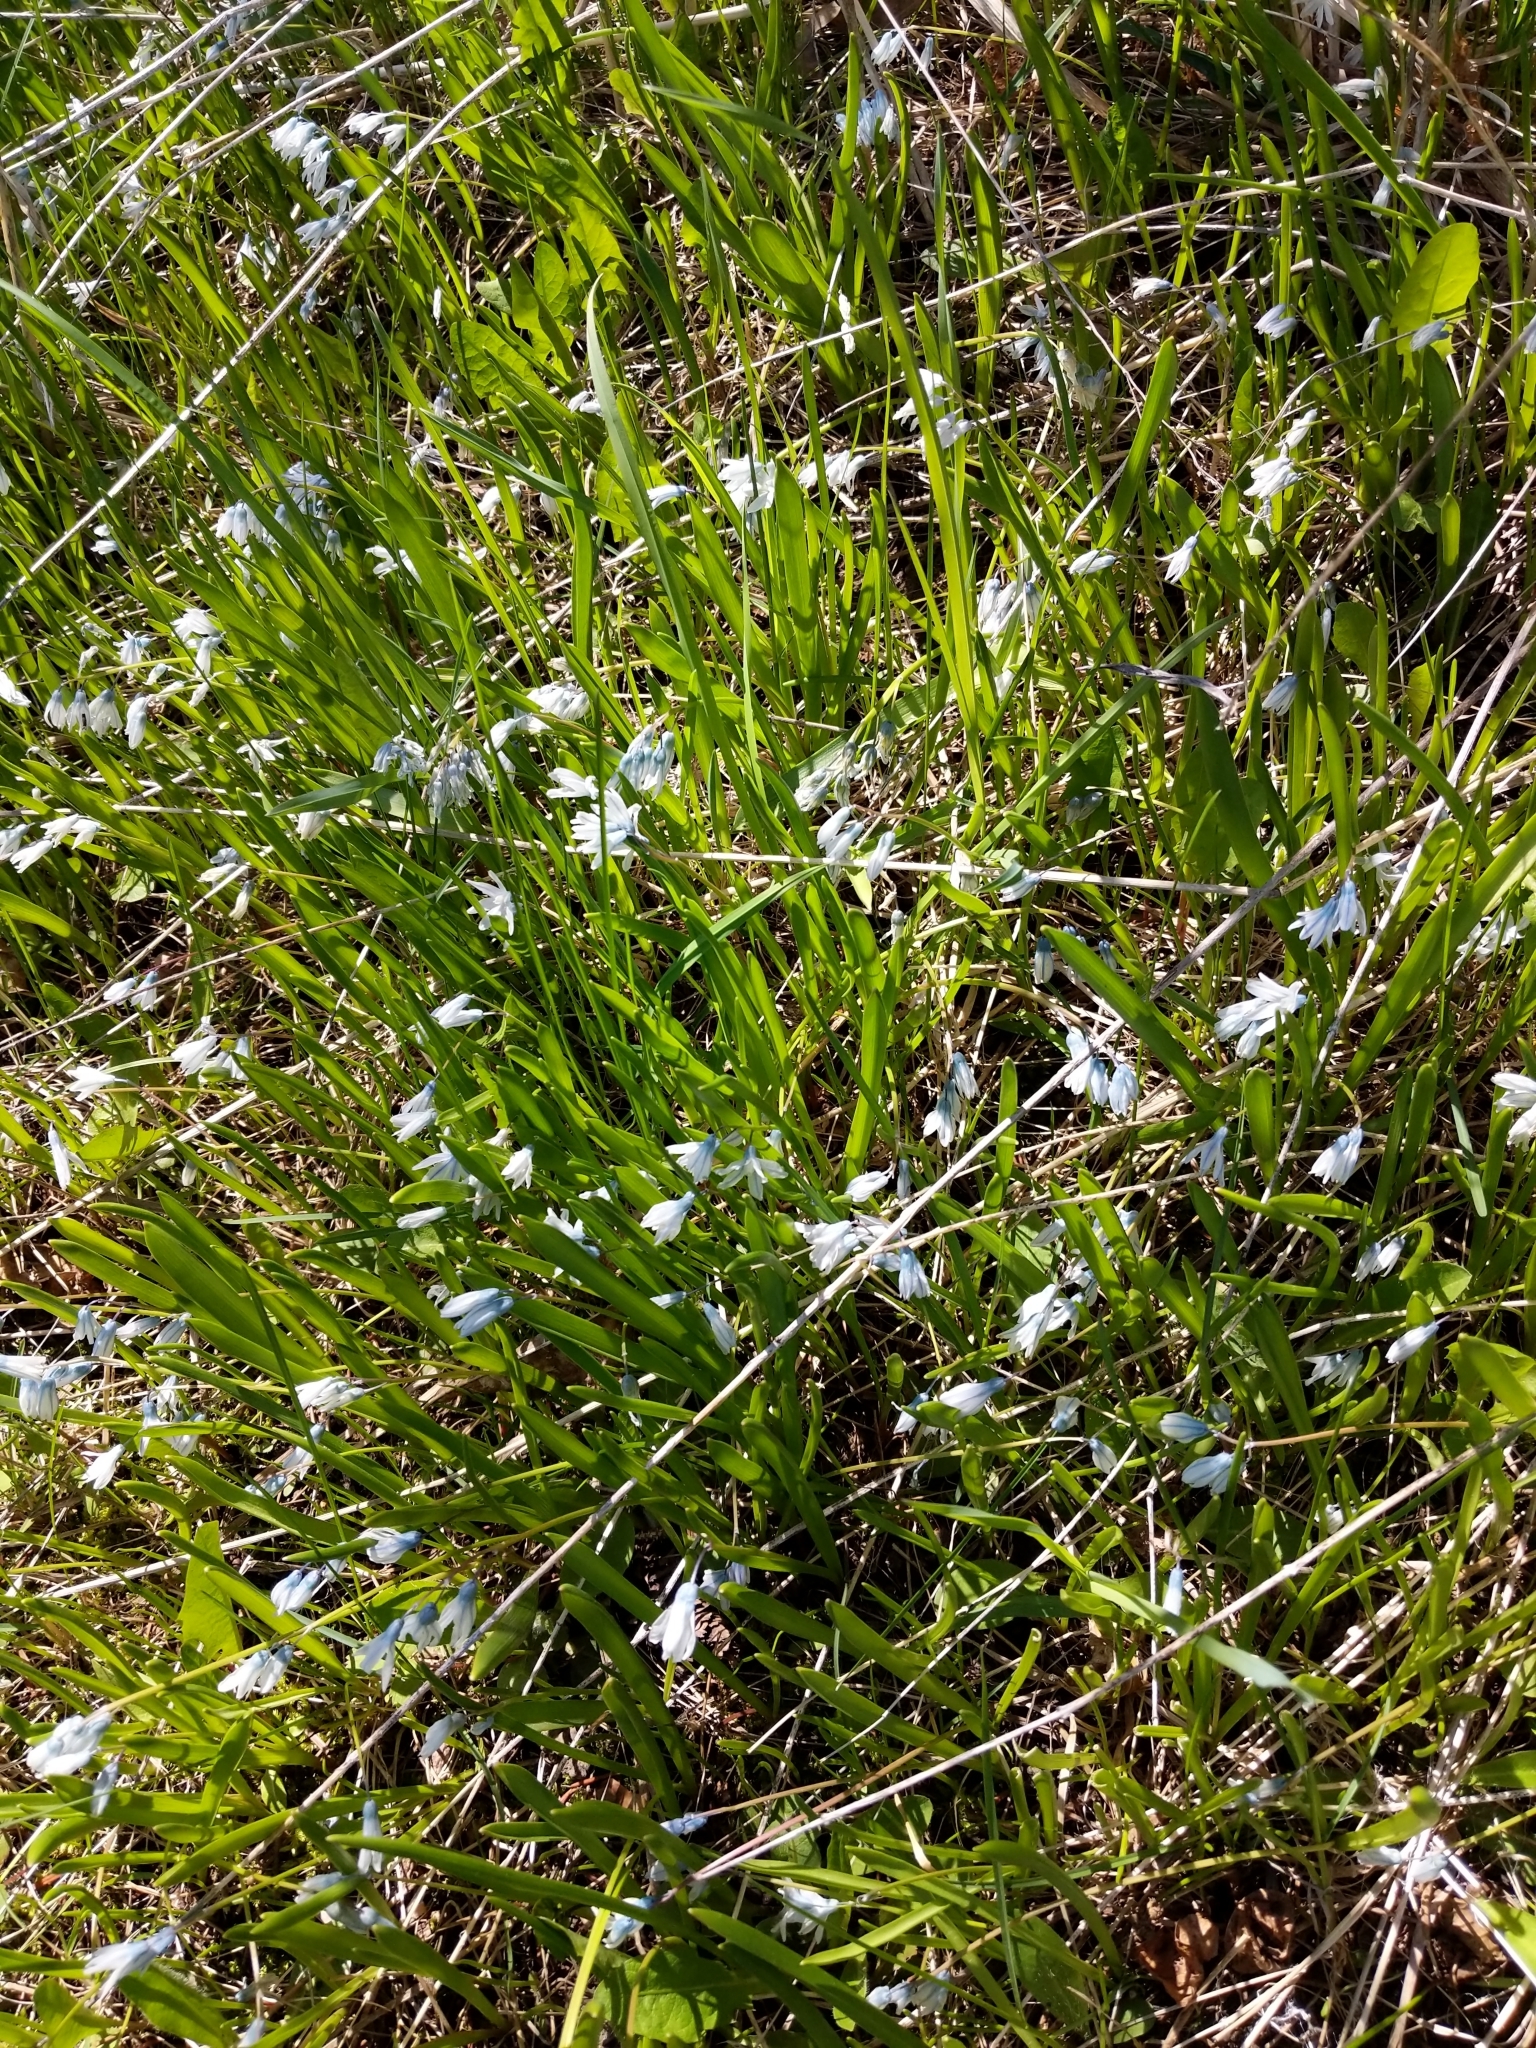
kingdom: Plantae
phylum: Tracheophyta
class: Liliopsida
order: Asparagales
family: Asparagaceae
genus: Puschkinia
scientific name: Puschkinia scilloides
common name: Striped squill
